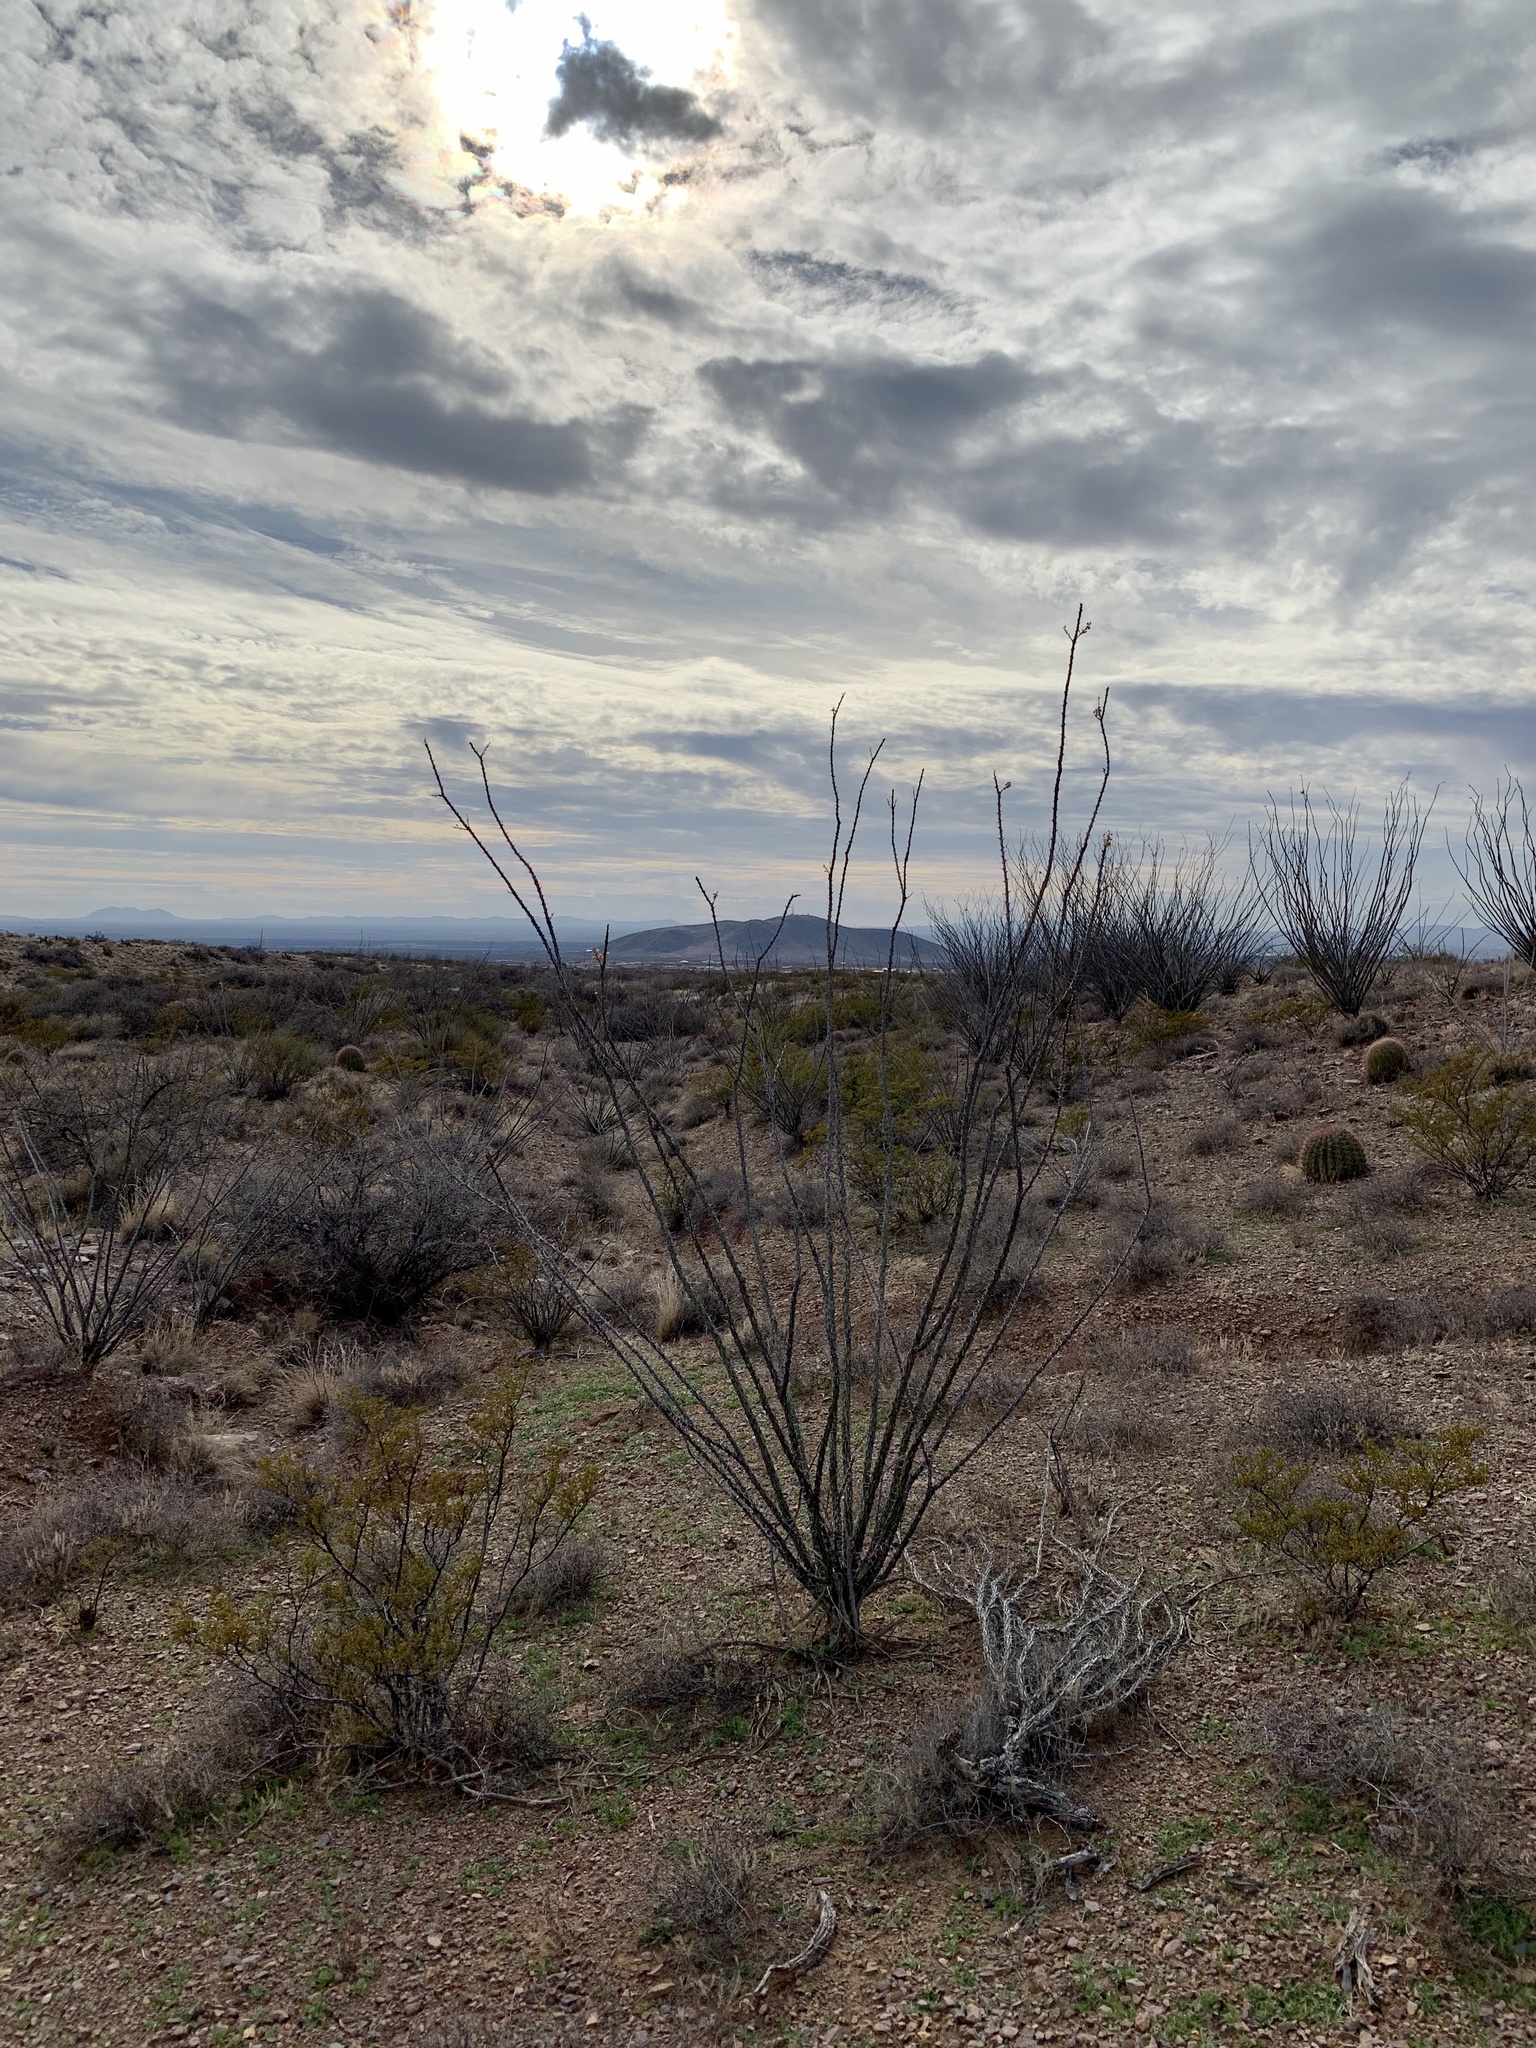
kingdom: Plantae
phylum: Tracheophyta
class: Magnoliopsida
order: Ericales
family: Fouquieriaceae
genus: Fouquieria
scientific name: Fouquieria splendens
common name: Vine-cactus
